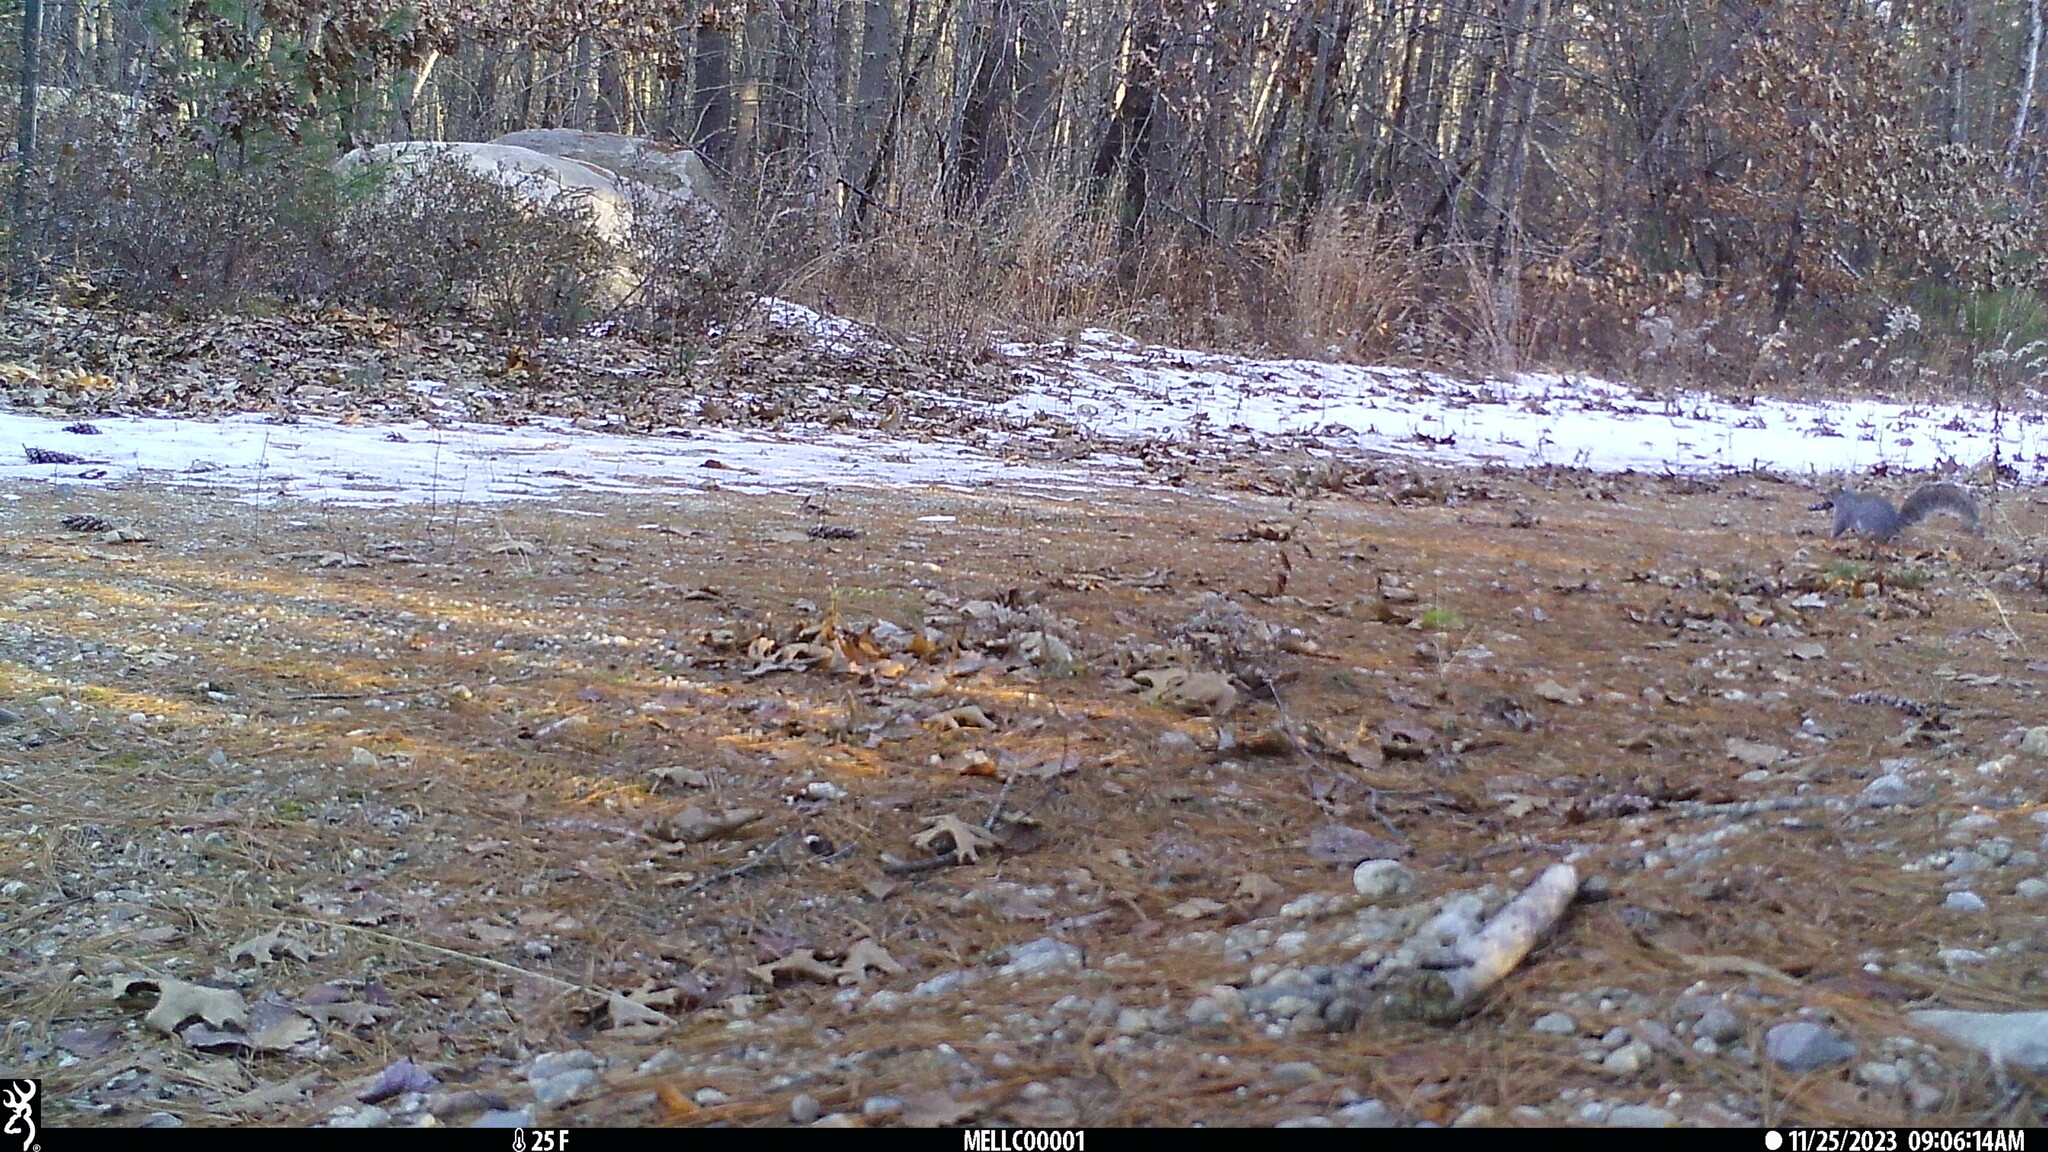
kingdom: Animalia
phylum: Chordata
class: Mammalia
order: Rodentia
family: Sciuridae
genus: Sciurus
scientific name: Sciurus carolinensis
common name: Eastern gray squirrel
